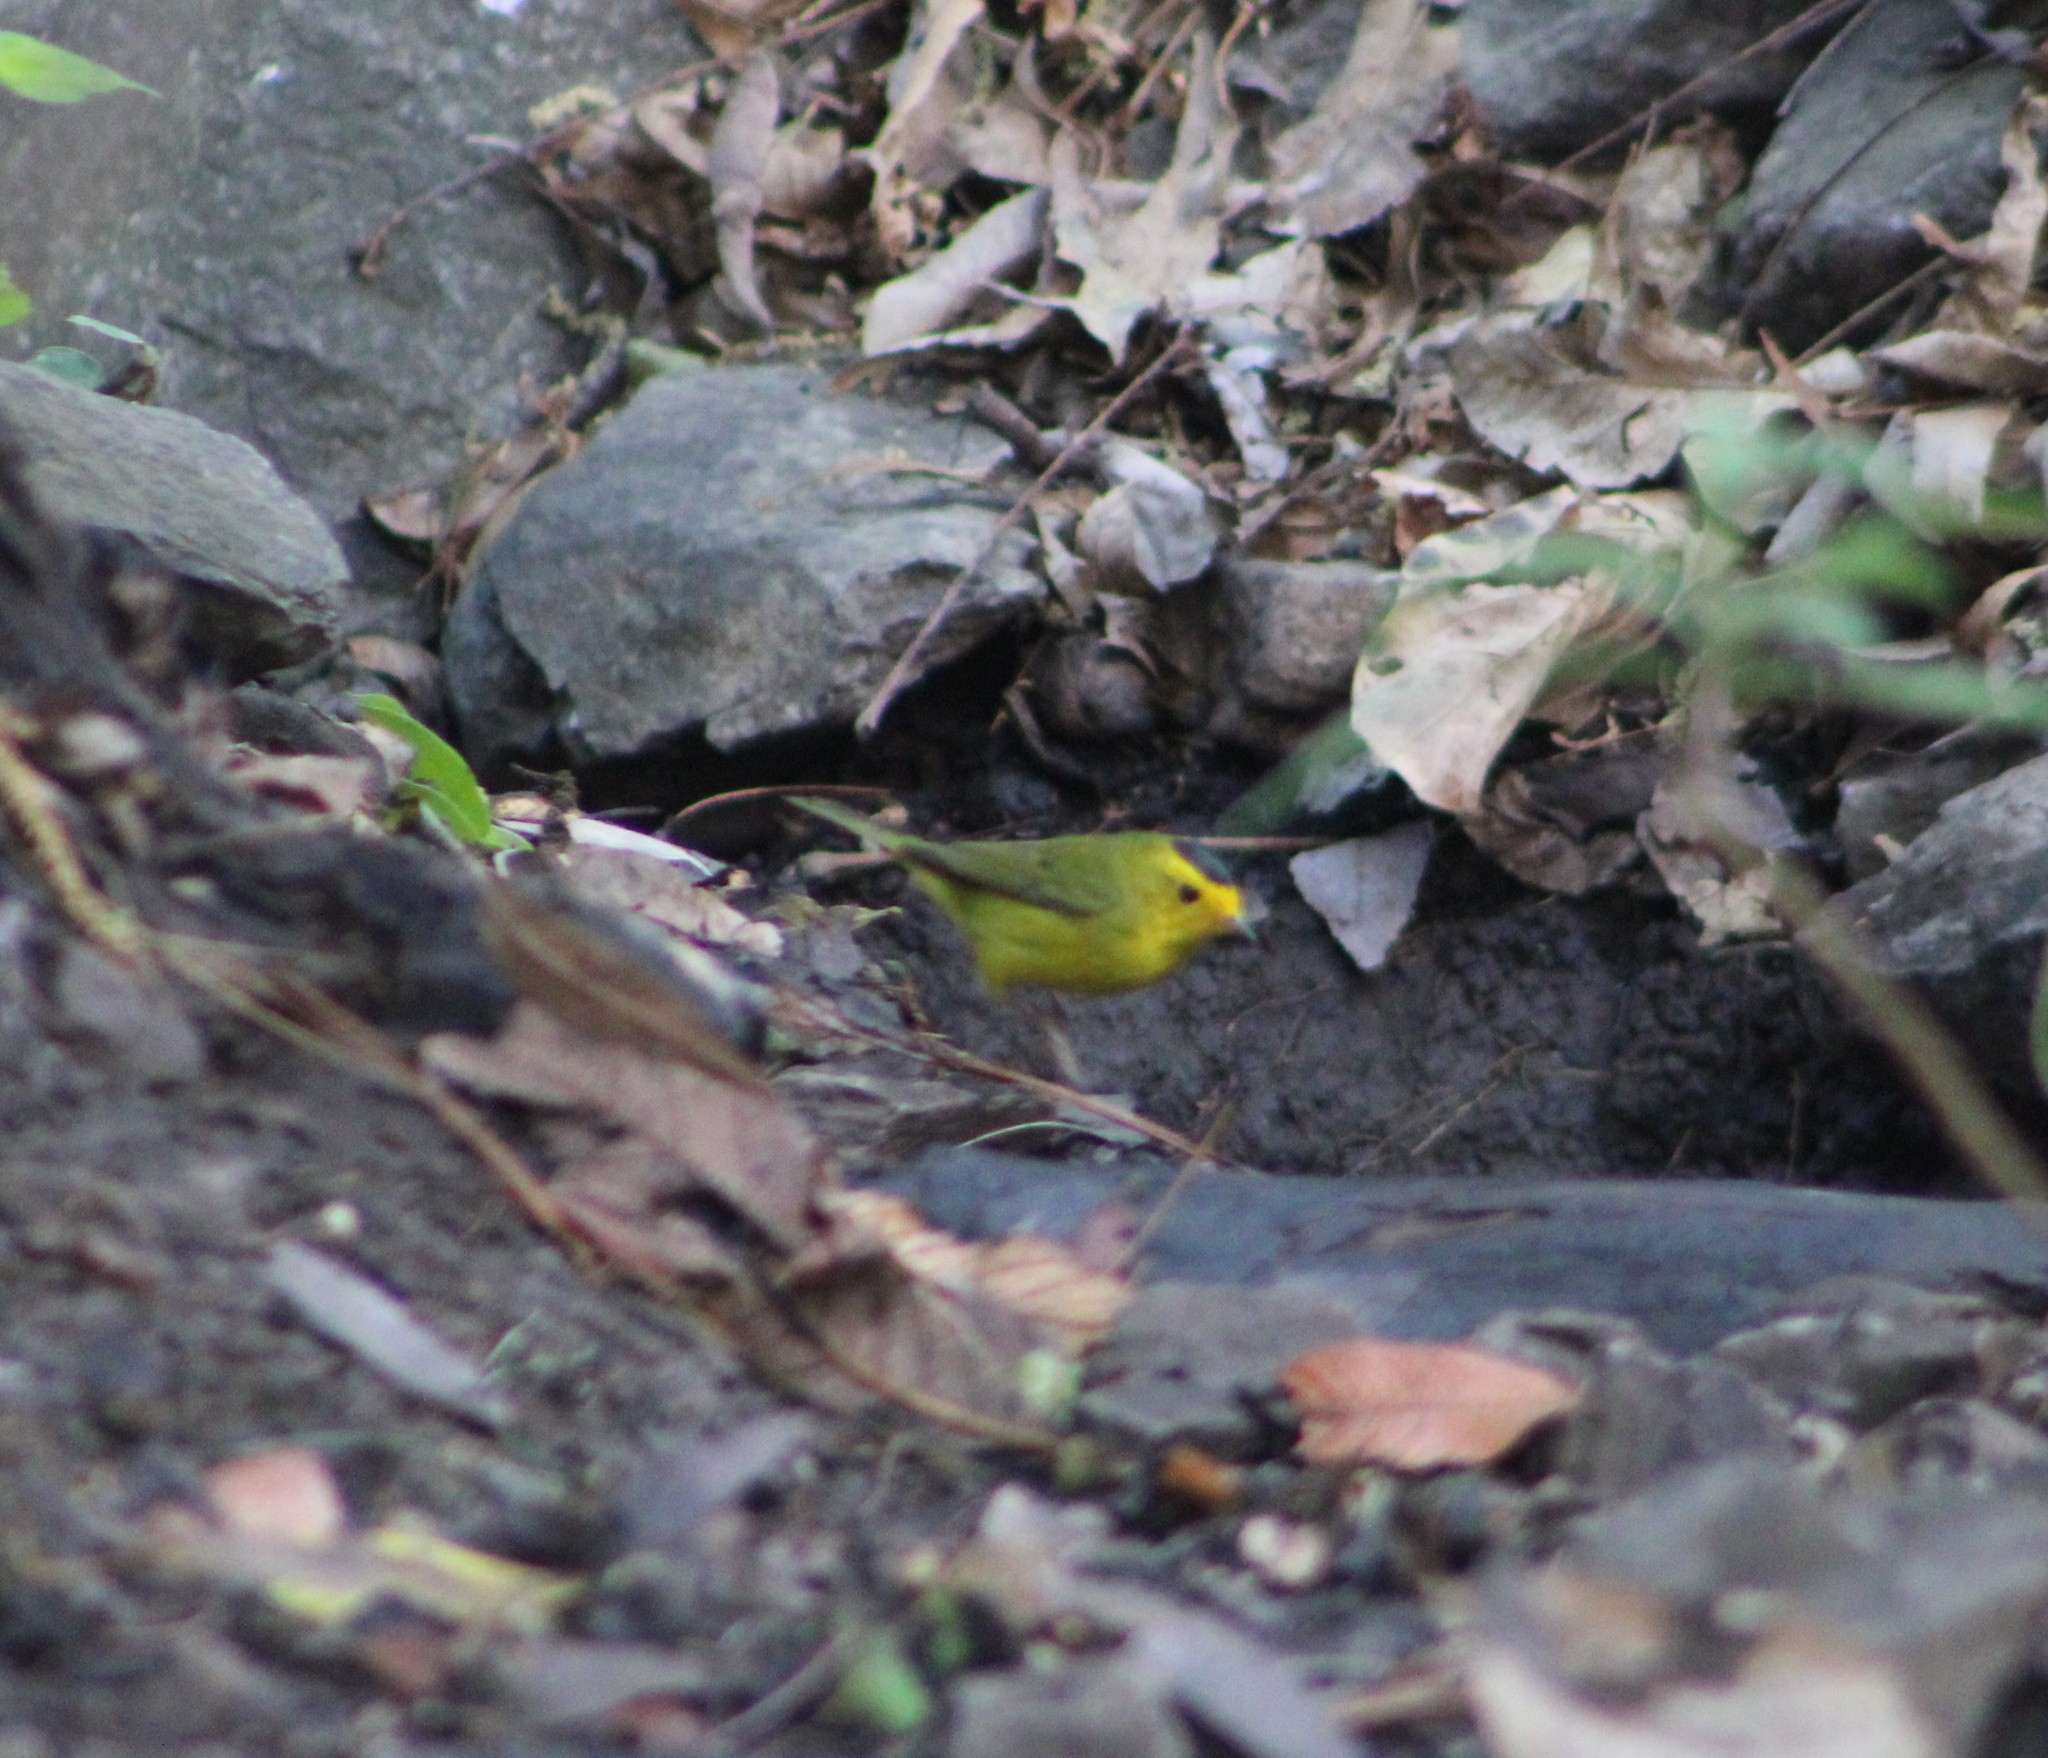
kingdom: Animalia
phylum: Chordata
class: Aves
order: Passeriformes
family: Parulidae
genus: Cardellina
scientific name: Cardellina pusilla
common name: Wilson's warbler
